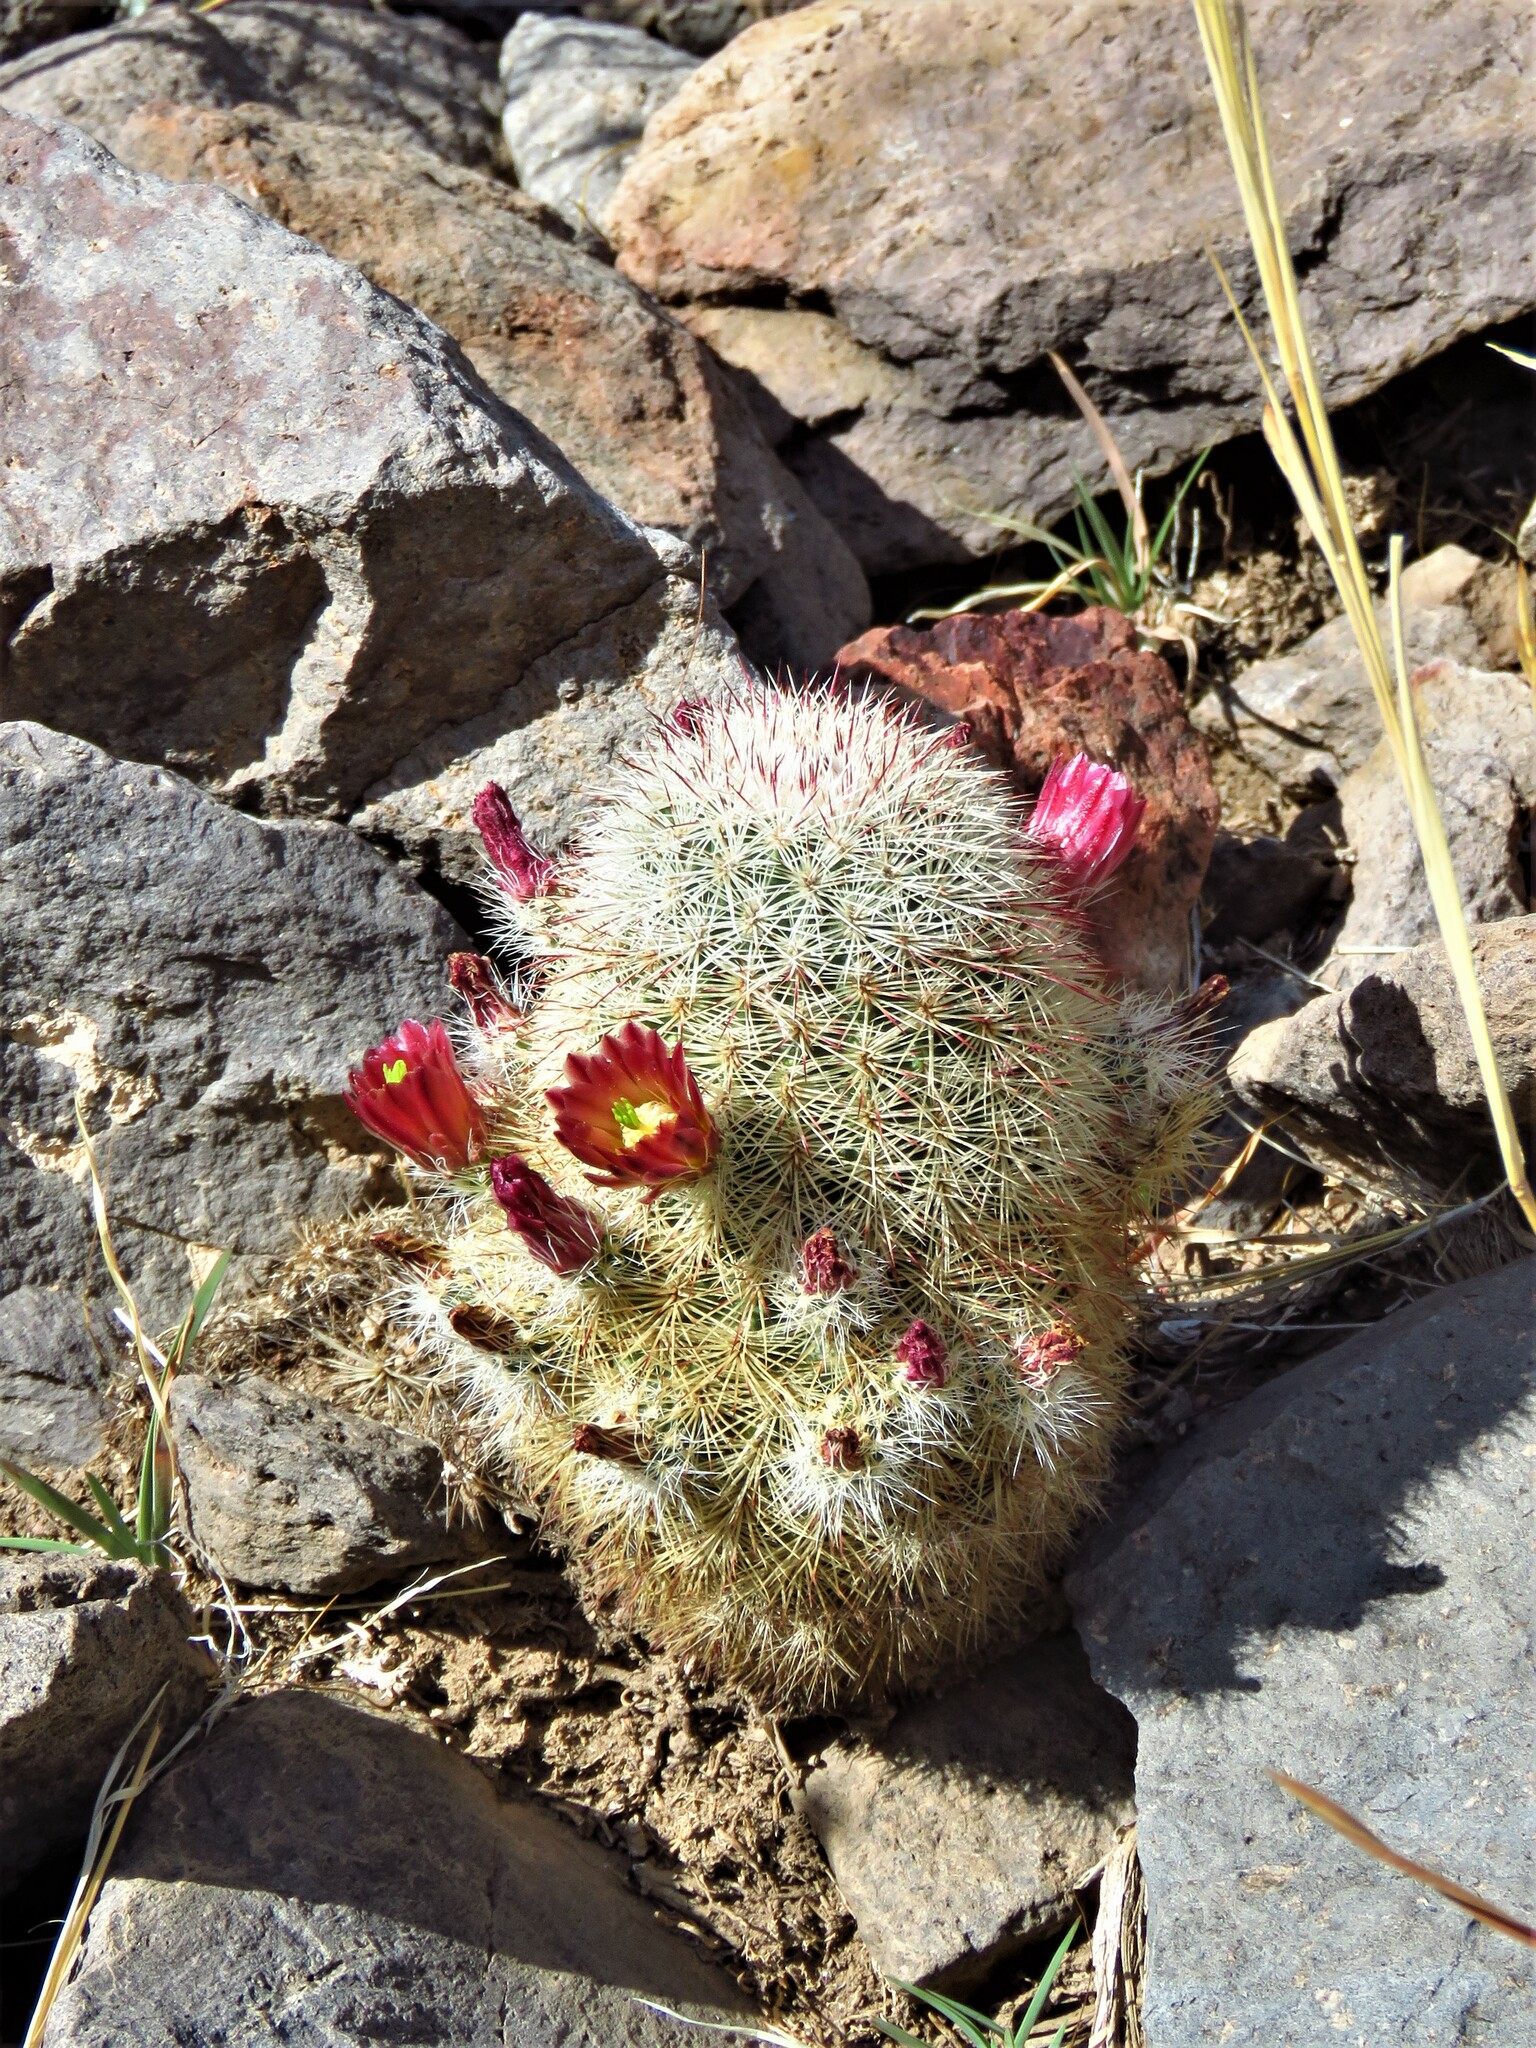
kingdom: Plantae
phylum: Tracheophyta
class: Magnoliopsida
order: Caryophyllales
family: Cactaceae
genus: Echinocereus
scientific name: Echinocereus russanthus
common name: Brownspine hedgehog cactus
